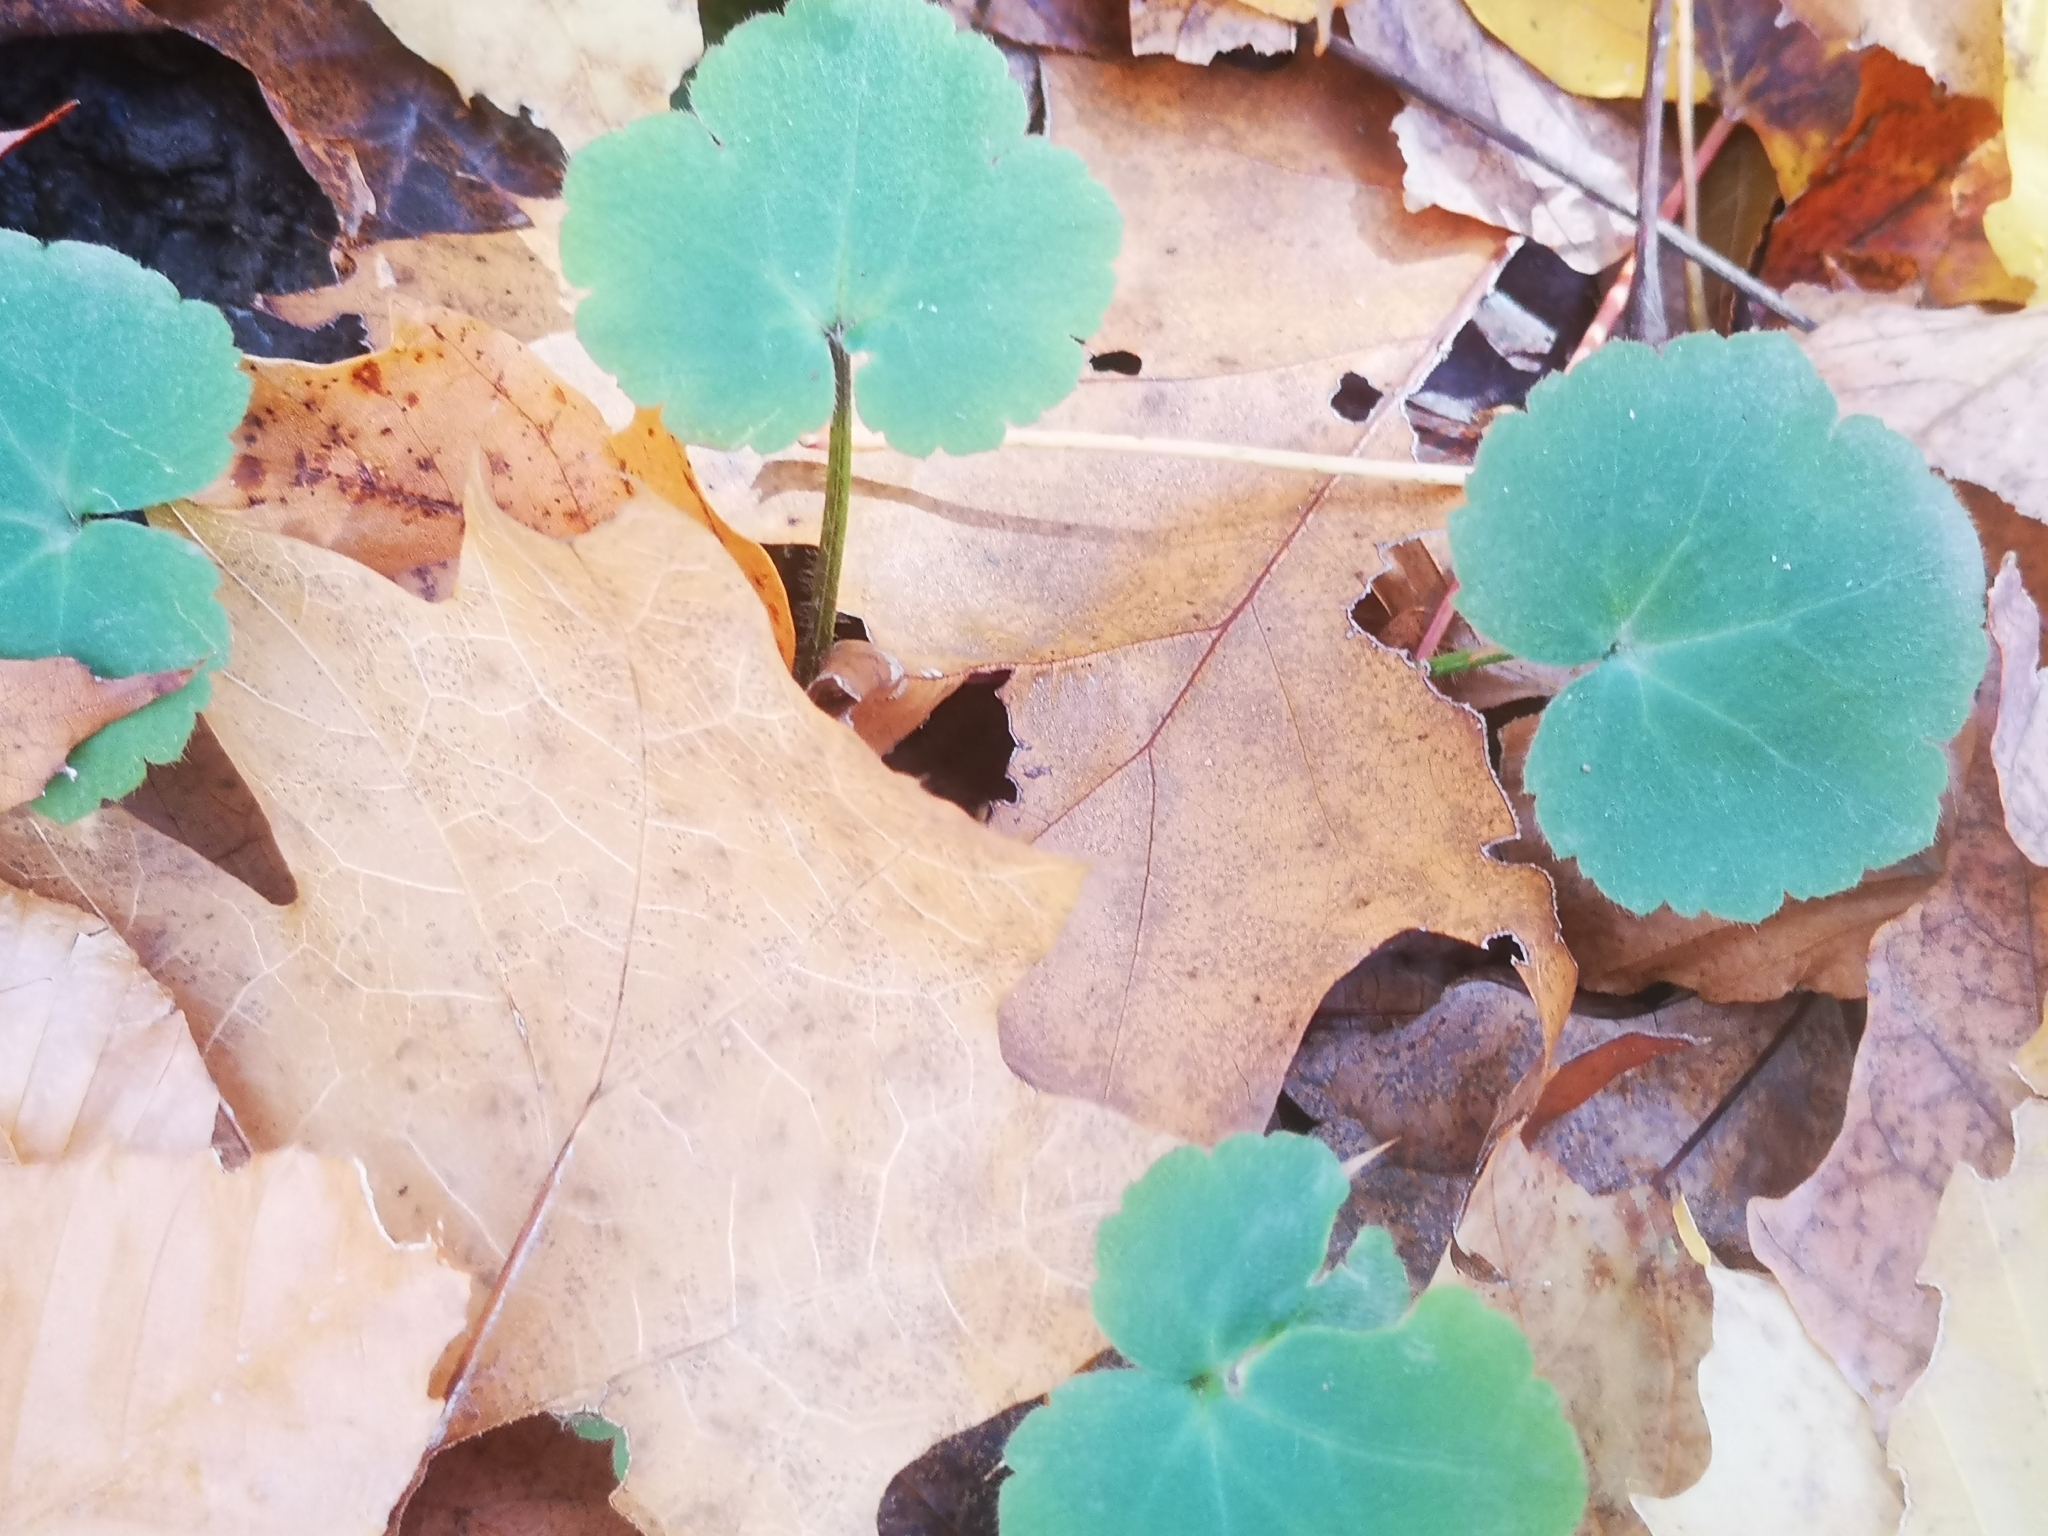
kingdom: Plantae
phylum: Tracheophyta
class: Magnoliopsida
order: Ranunculales
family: Ranunculaceae
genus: Ranunculus
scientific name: Ranunculus recurvatus
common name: Blisterwort
